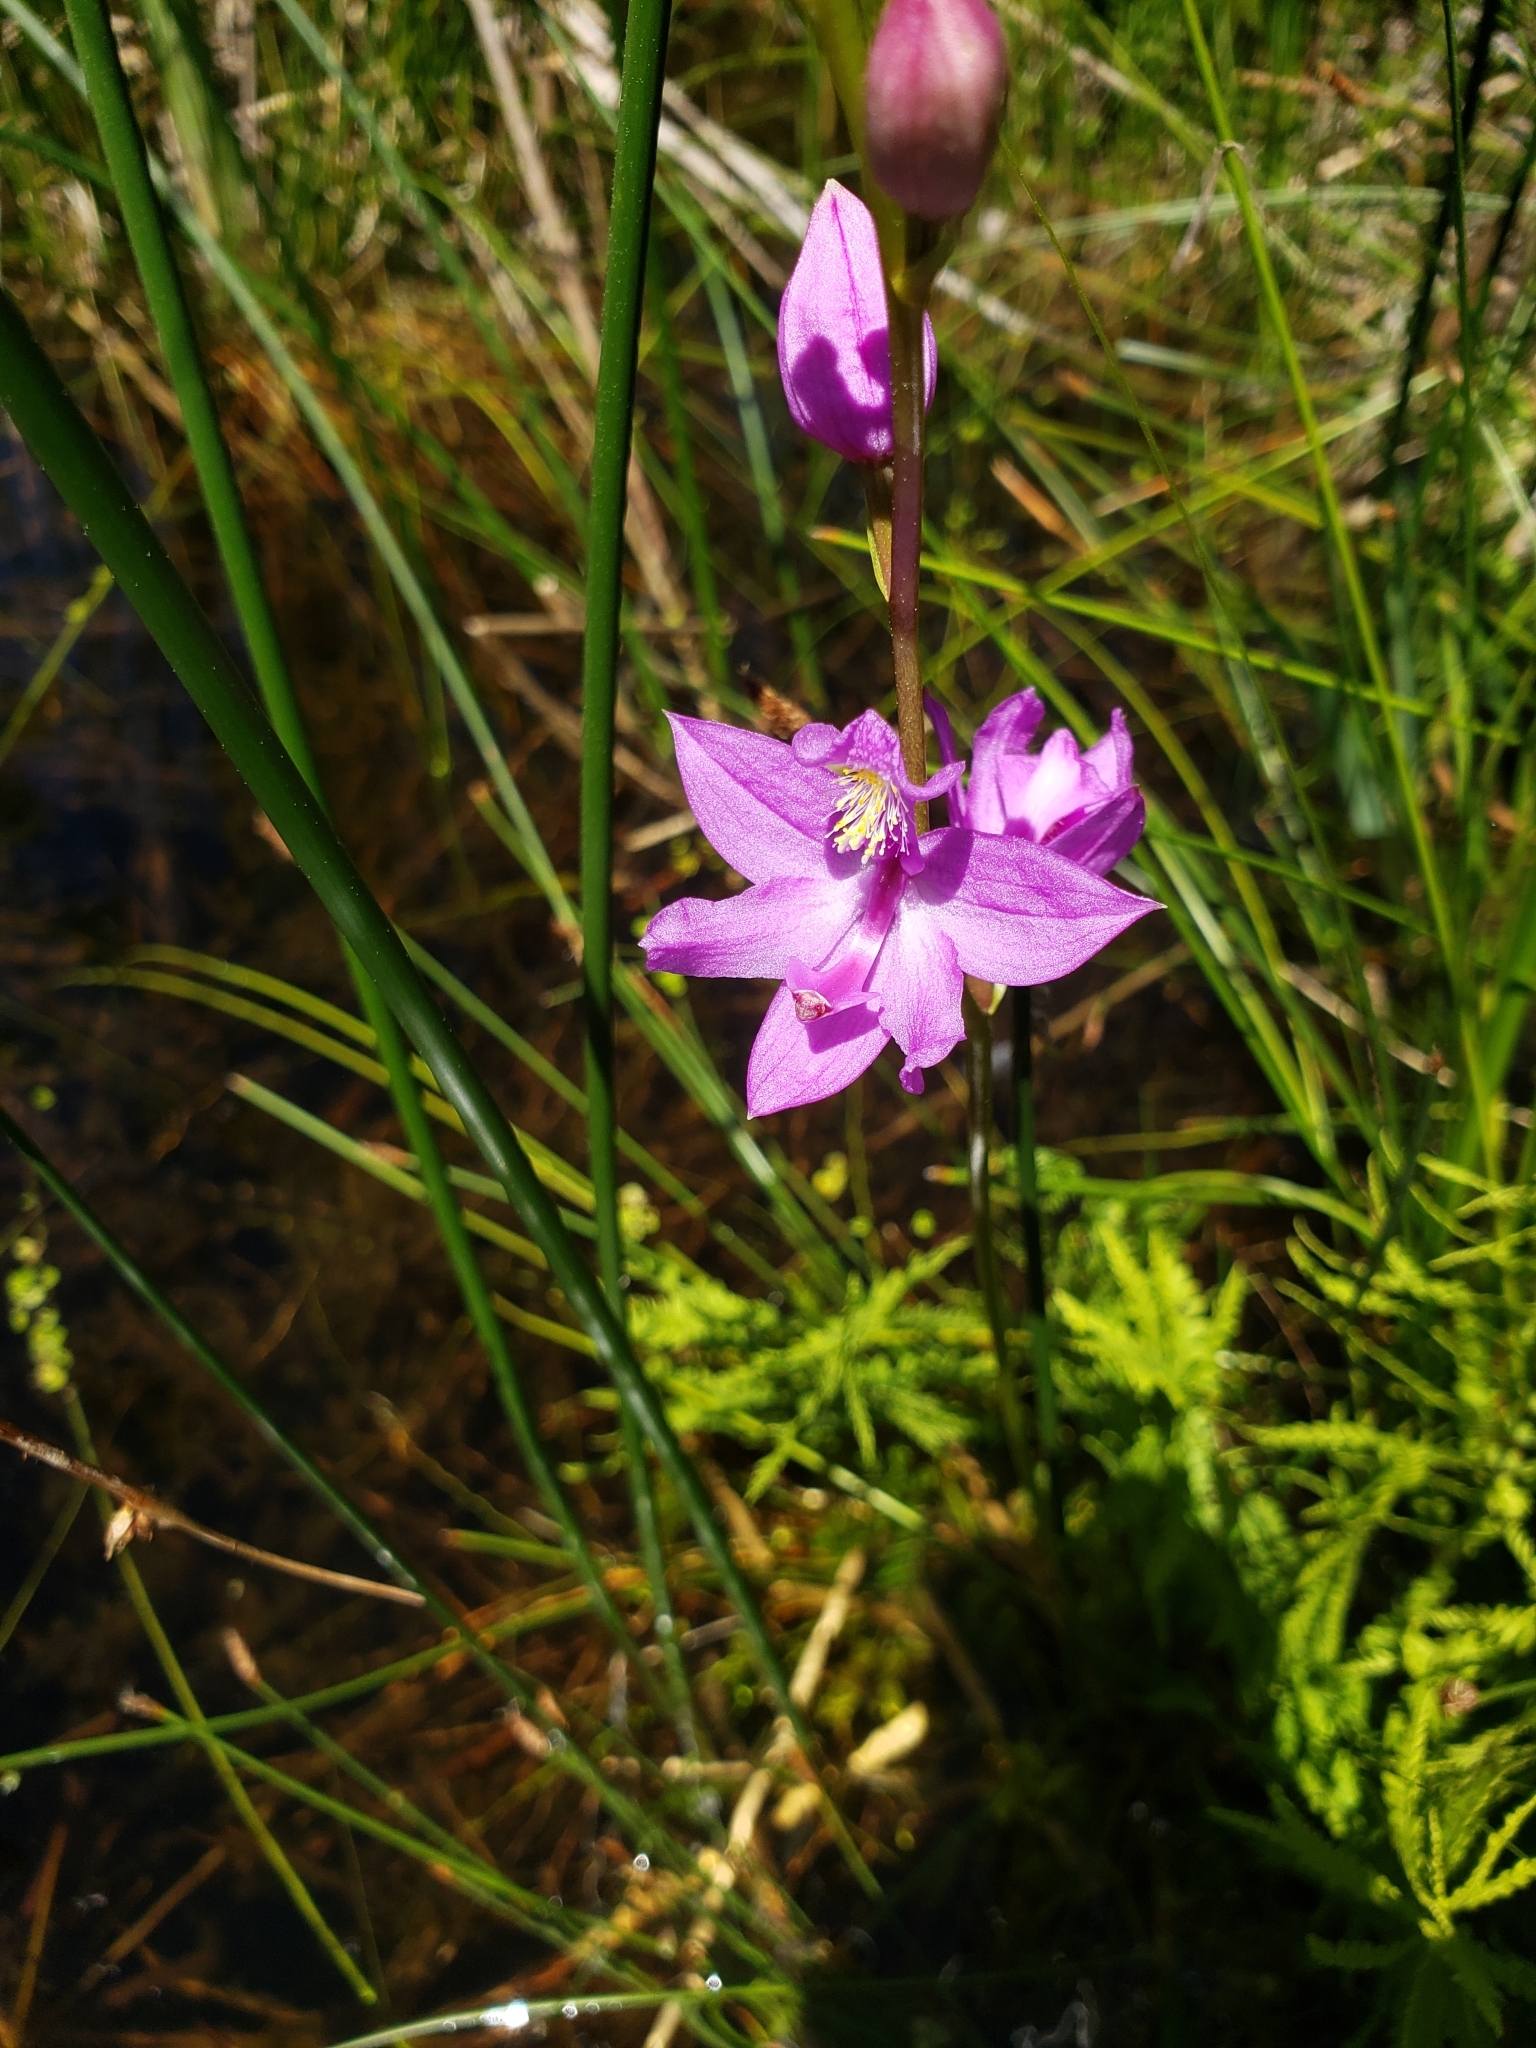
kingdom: Plantae
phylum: Tracheophyta
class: Liliopsida
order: Asparagales
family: Orchidaceae
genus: Calopogon
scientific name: Calopogon tuberosus
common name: Grass-pink
